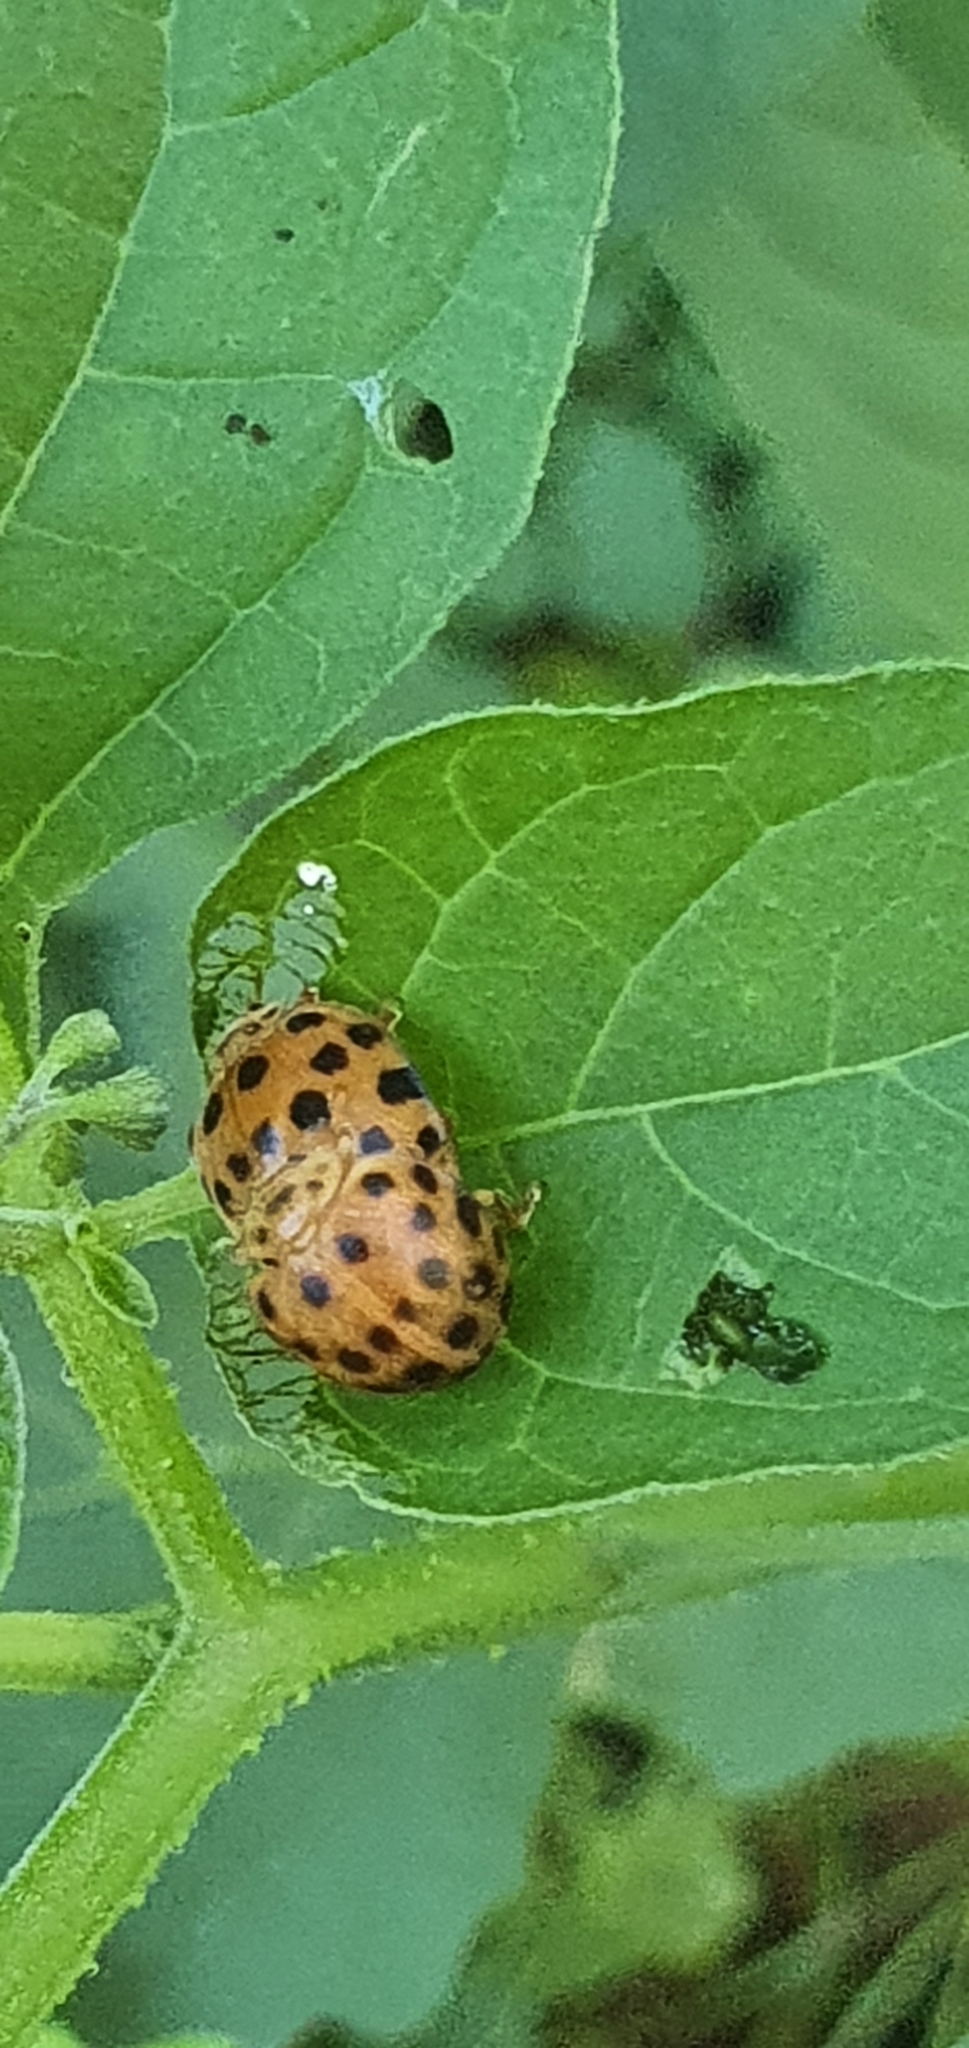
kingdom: Animalia
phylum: Arthropoda
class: Insecta
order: Coleoptera
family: Coccinellidae
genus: Henosepilachna
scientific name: Henosepilachna vigintioctopunctata
